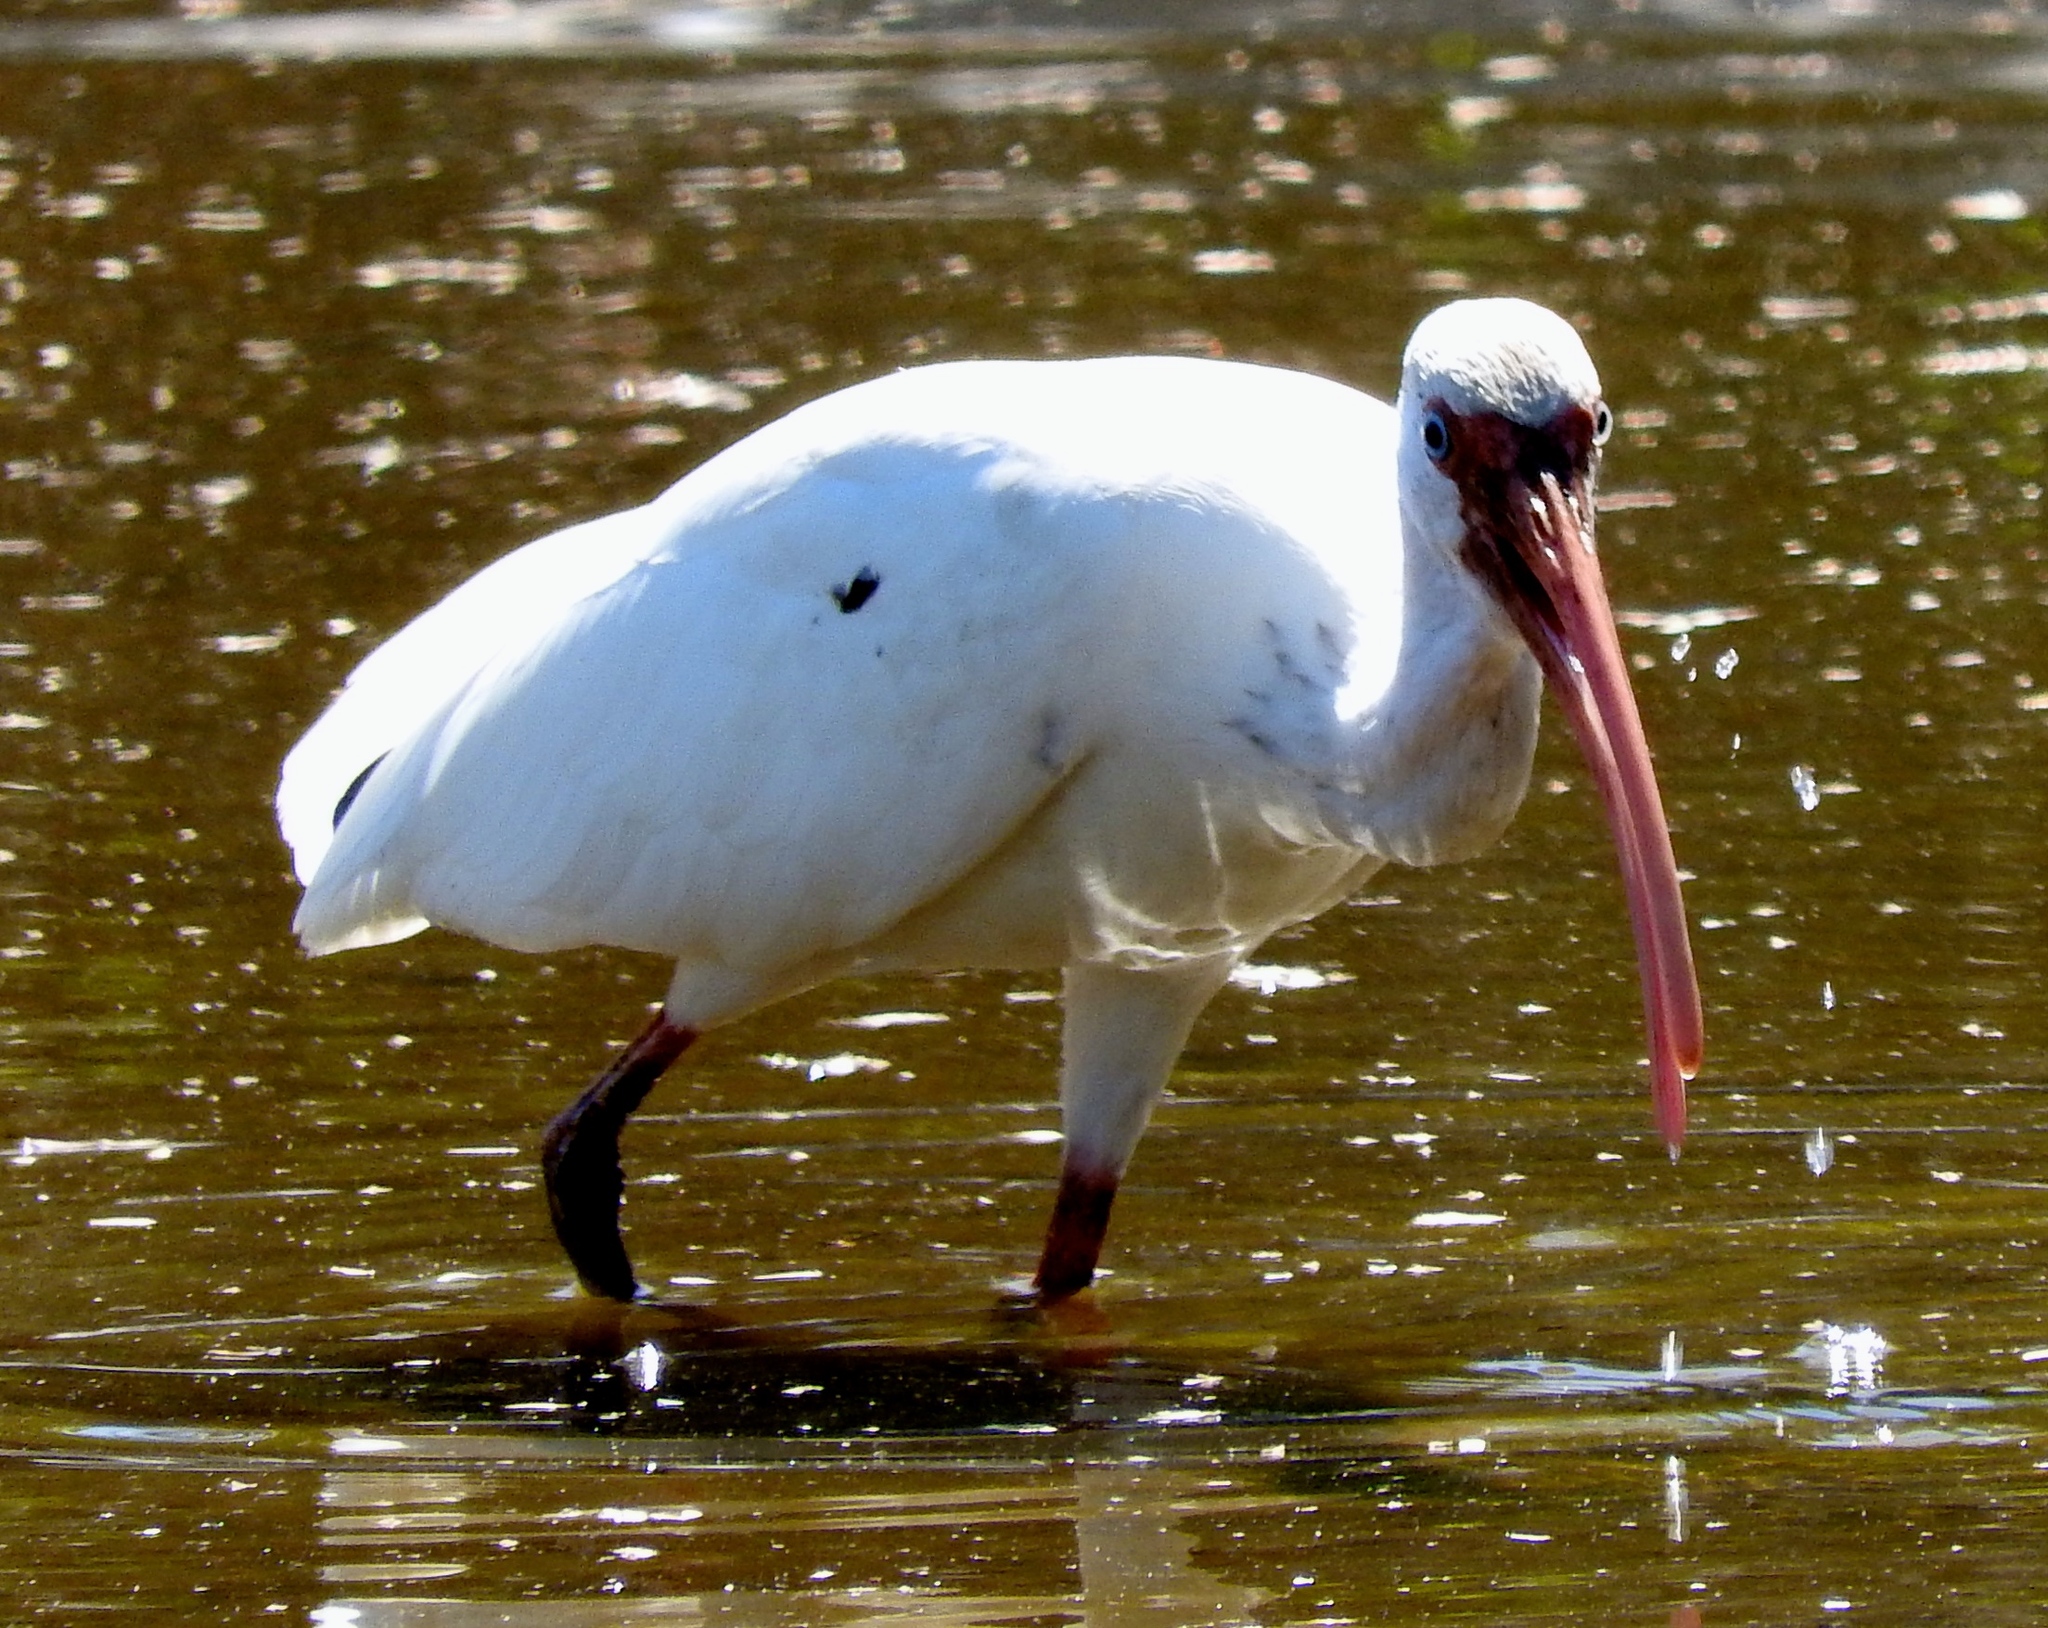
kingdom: Animalia
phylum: Chordata
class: Aves
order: Pelecaniformes
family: Threskiornithidae
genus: Eudocimus
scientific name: Eudocimus albus
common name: White ibis
